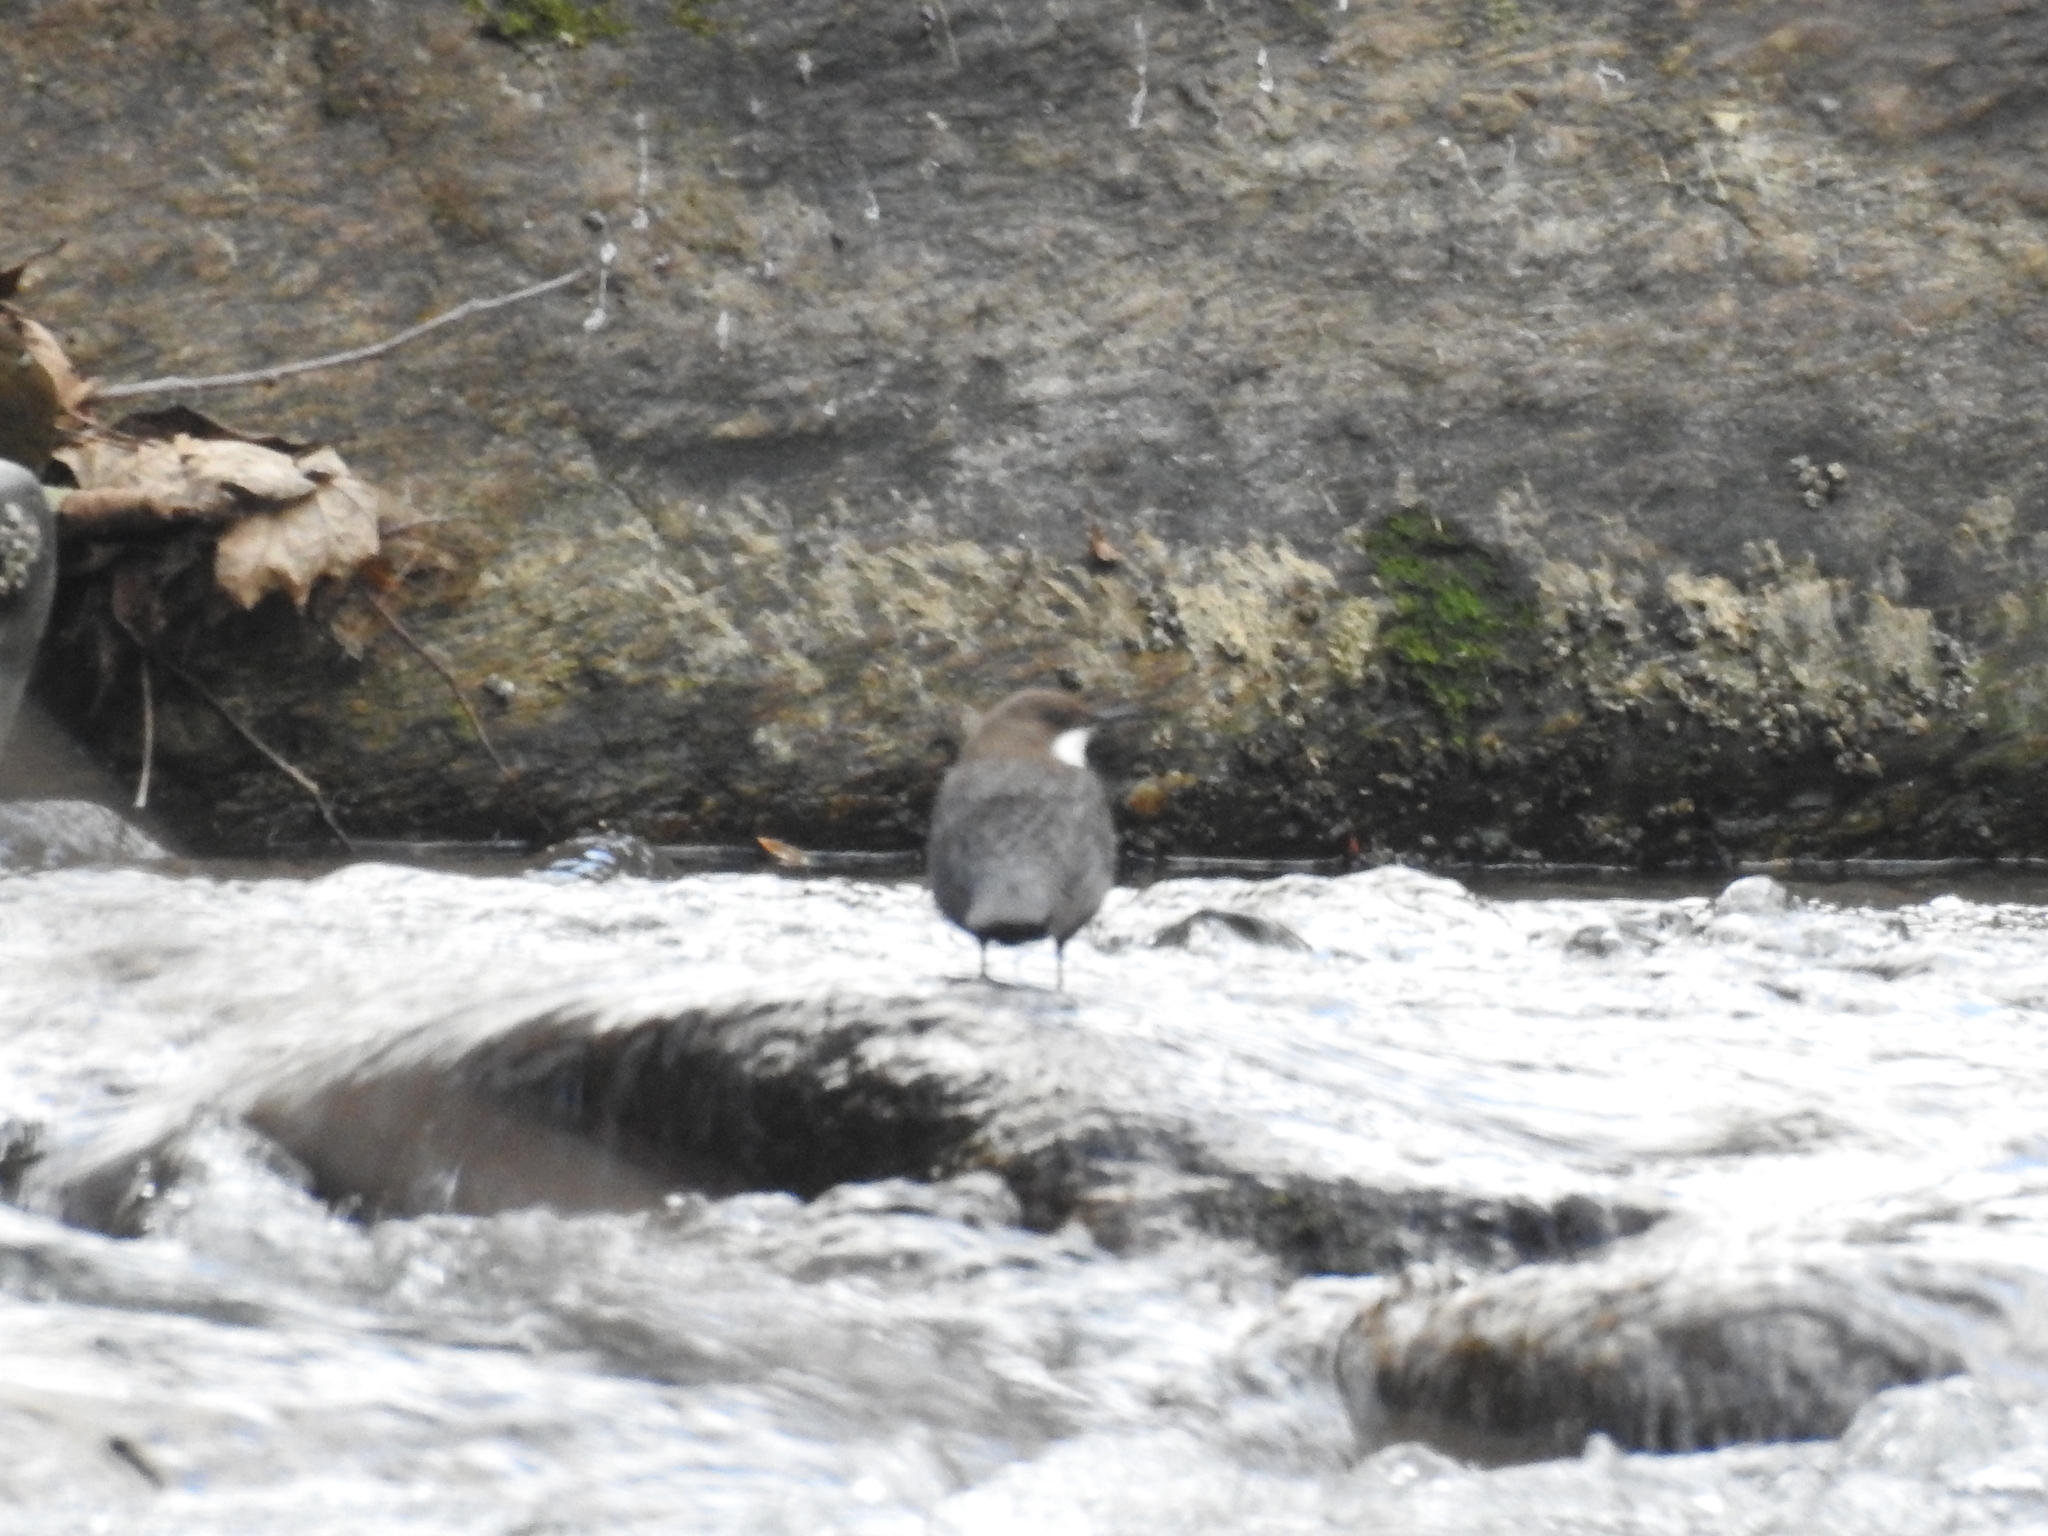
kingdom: Animalia
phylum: Chordata
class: Aves
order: Passeriformes
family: Cinclidae
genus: Cinclus
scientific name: Cinclus cinclus
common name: White-throated dipper
